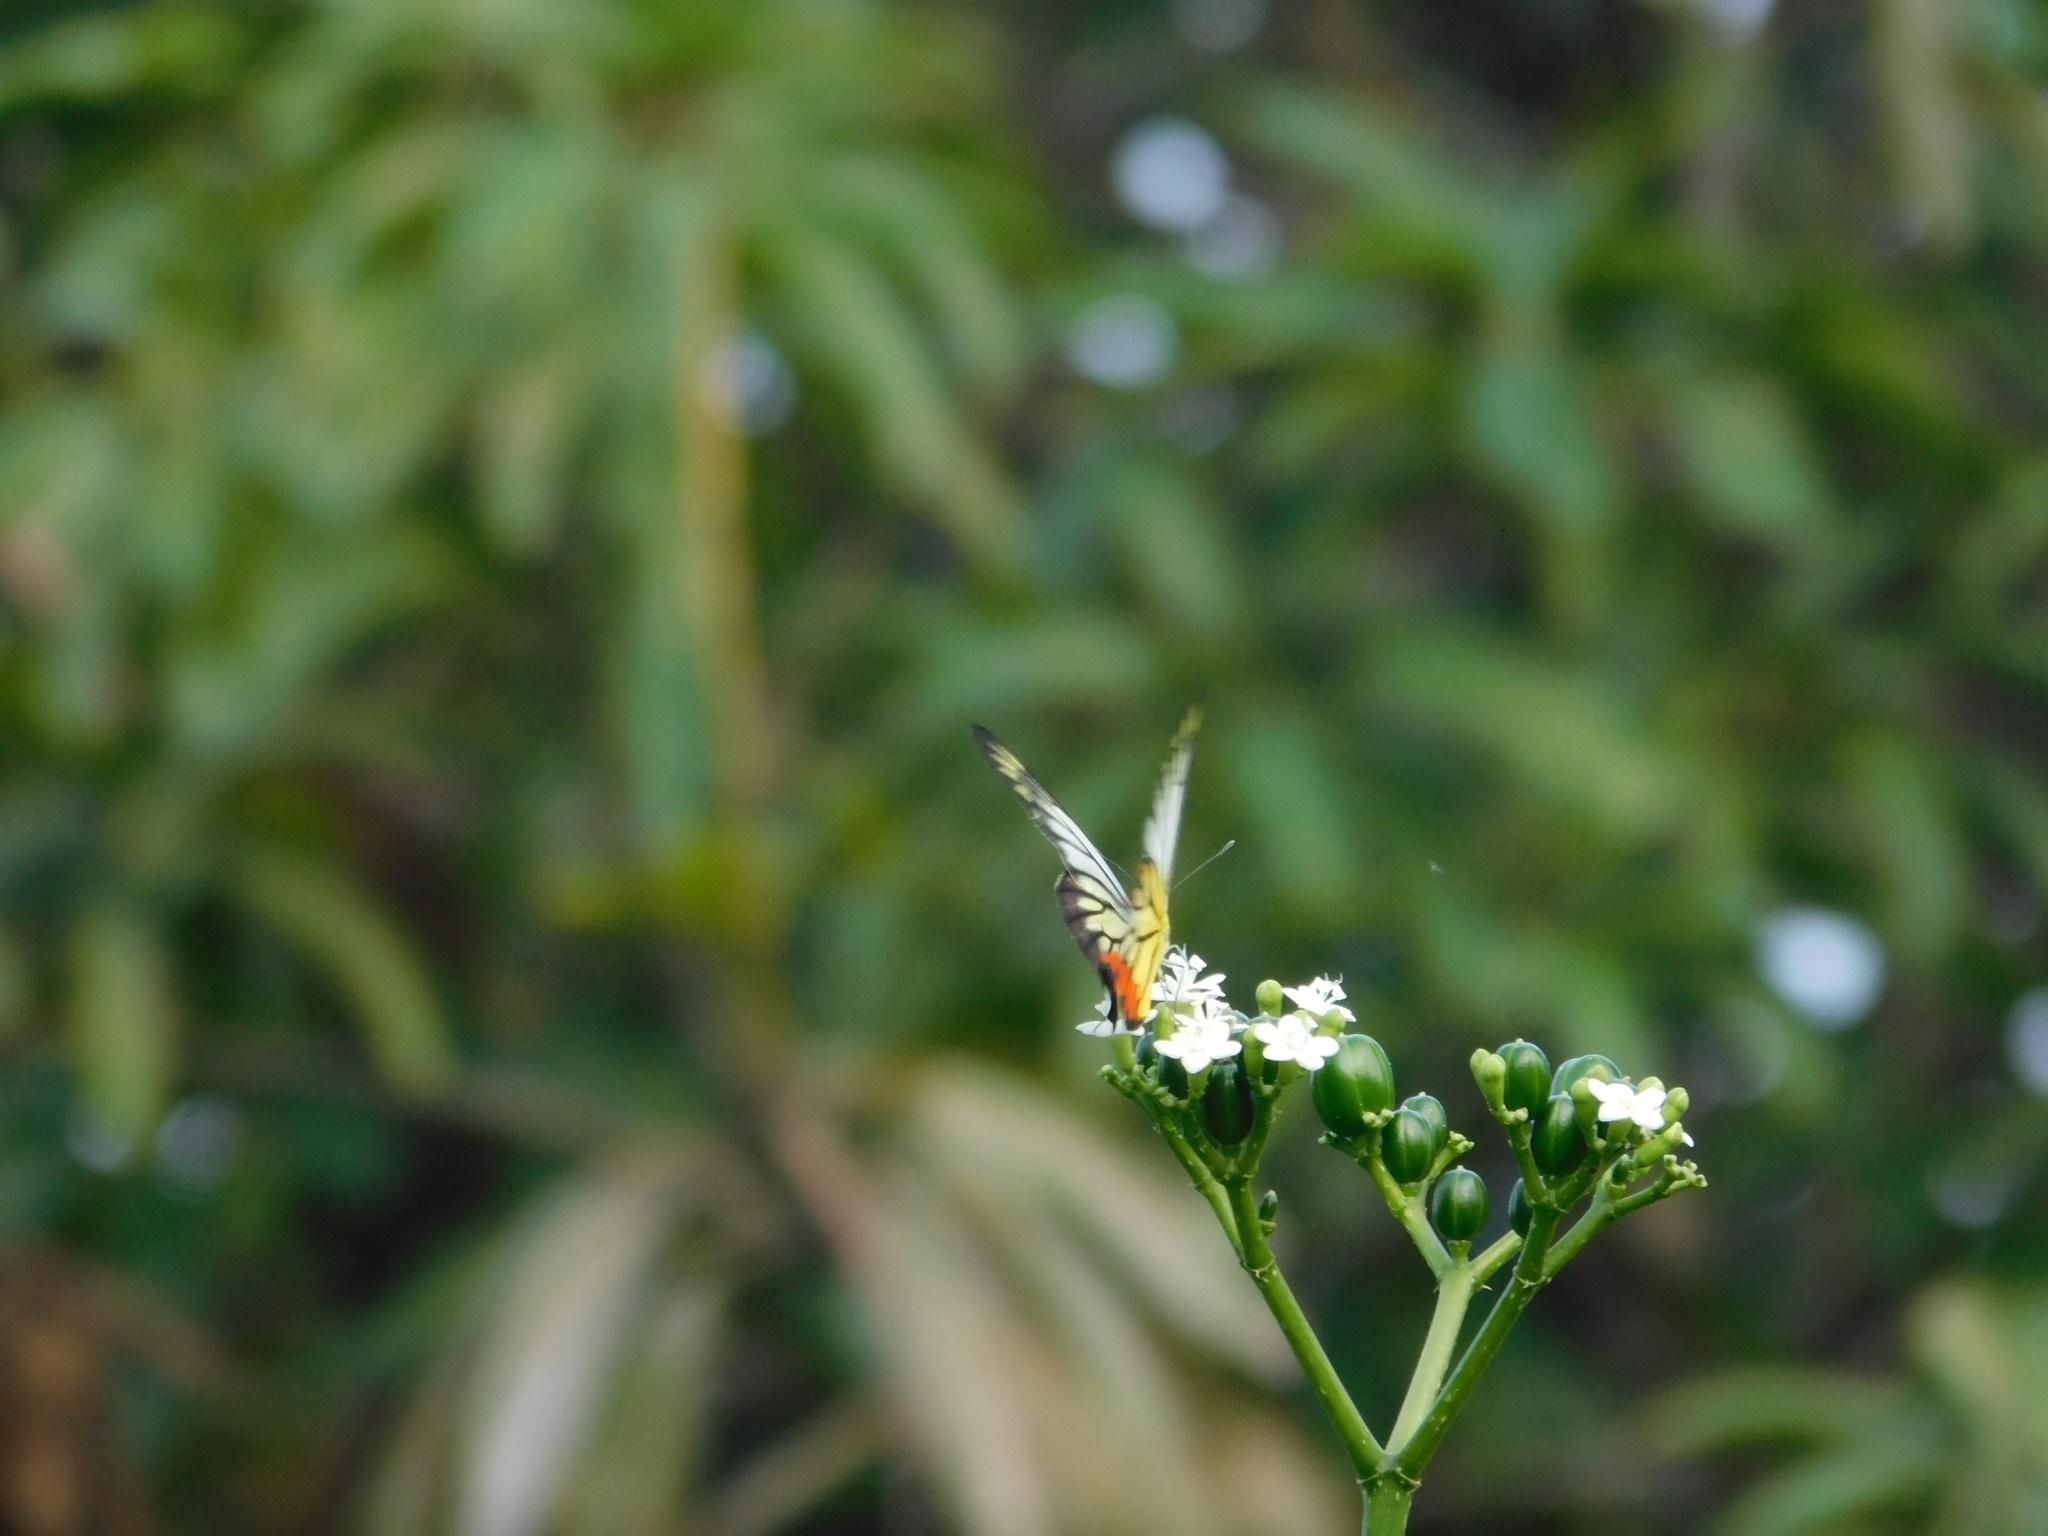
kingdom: Animalia
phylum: Arthropoda
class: Insecta
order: Lepidoptera
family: Pieridae
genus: Delias
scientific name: Delias hyparete
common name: Painted jezebel
